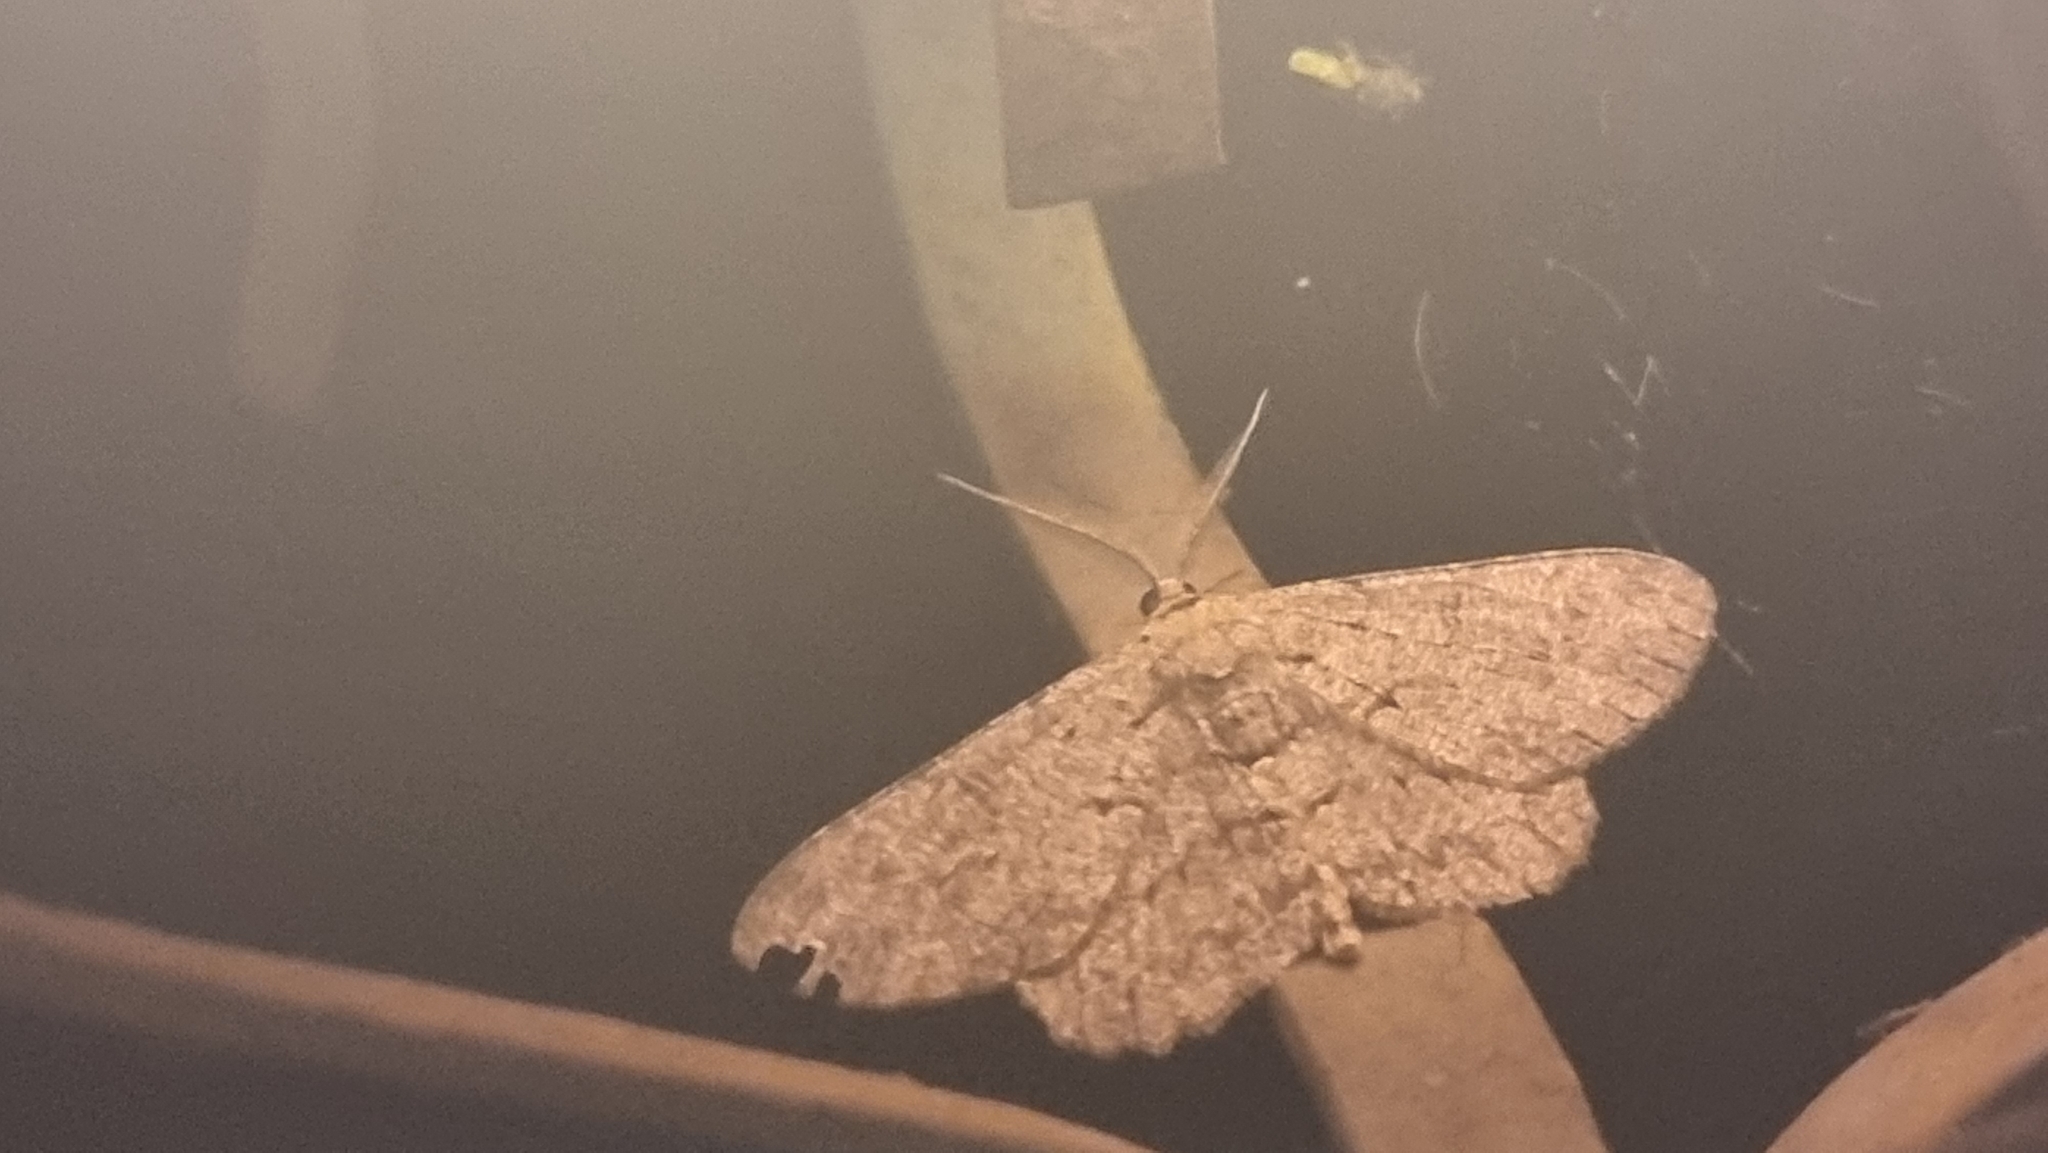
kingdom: Animalia
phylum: Arthropoda
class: Insecta
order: Lepidoptera
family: Geometridae
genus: Hypomecis
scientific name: Hypomecis punctinalis
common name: Pale oak beauty
